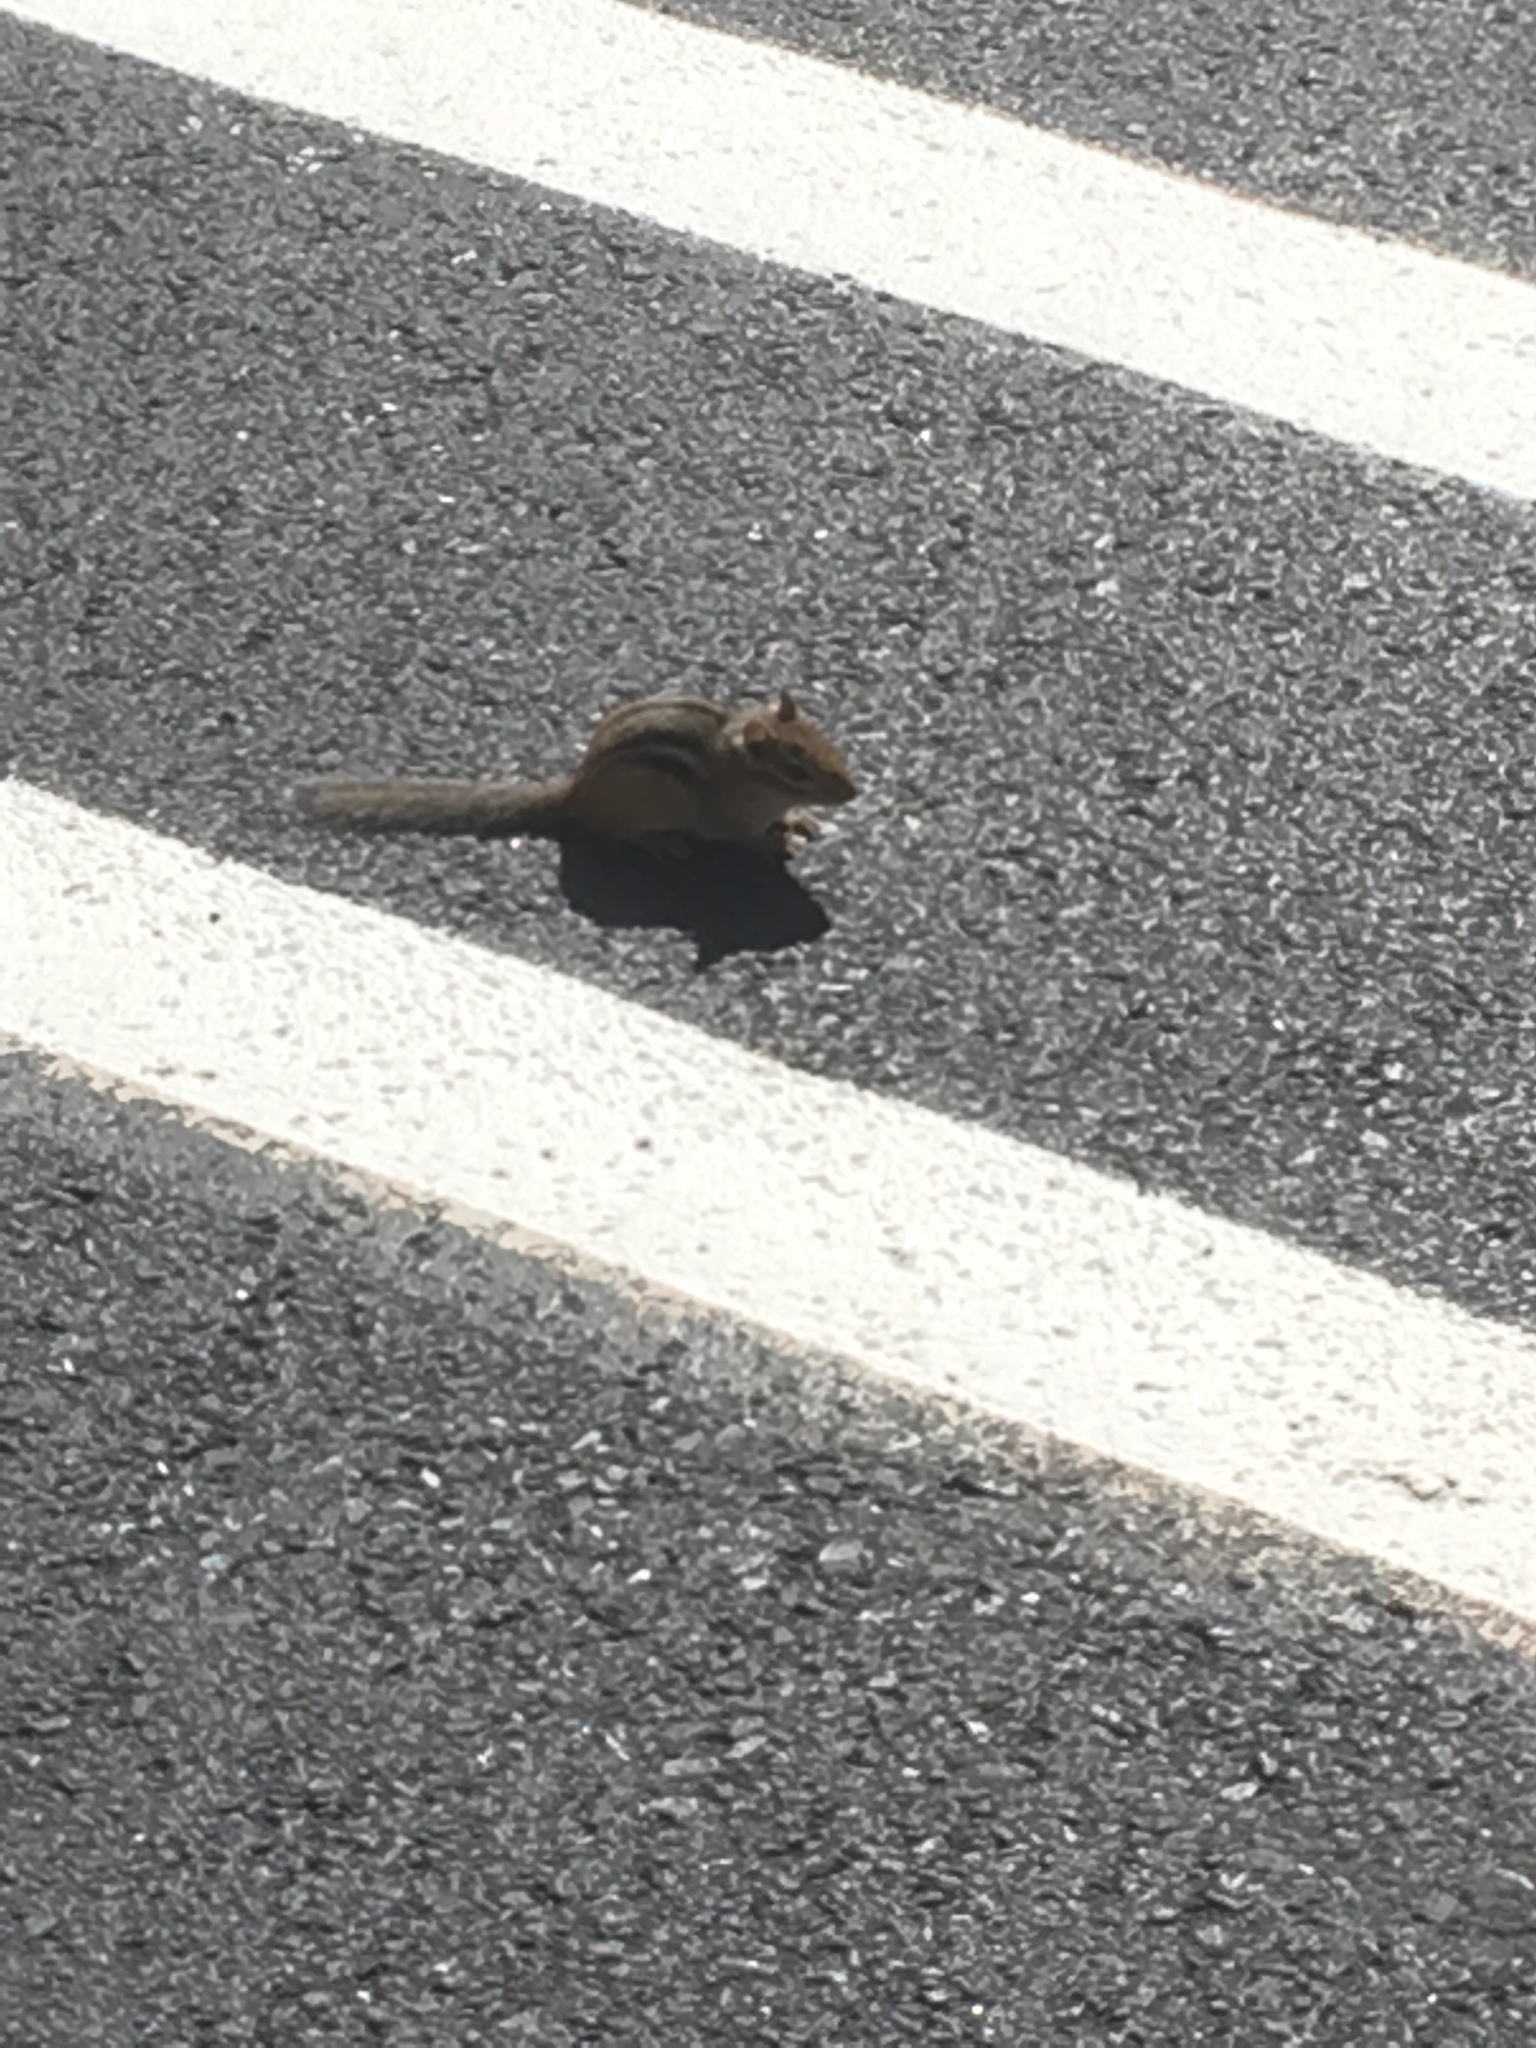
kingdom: Animalia
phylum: Chordata
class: Mammalia
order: Rodentia
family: Sciuridae
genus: Tamias
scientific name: Tamias striatus
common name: Eastern chipmunk
